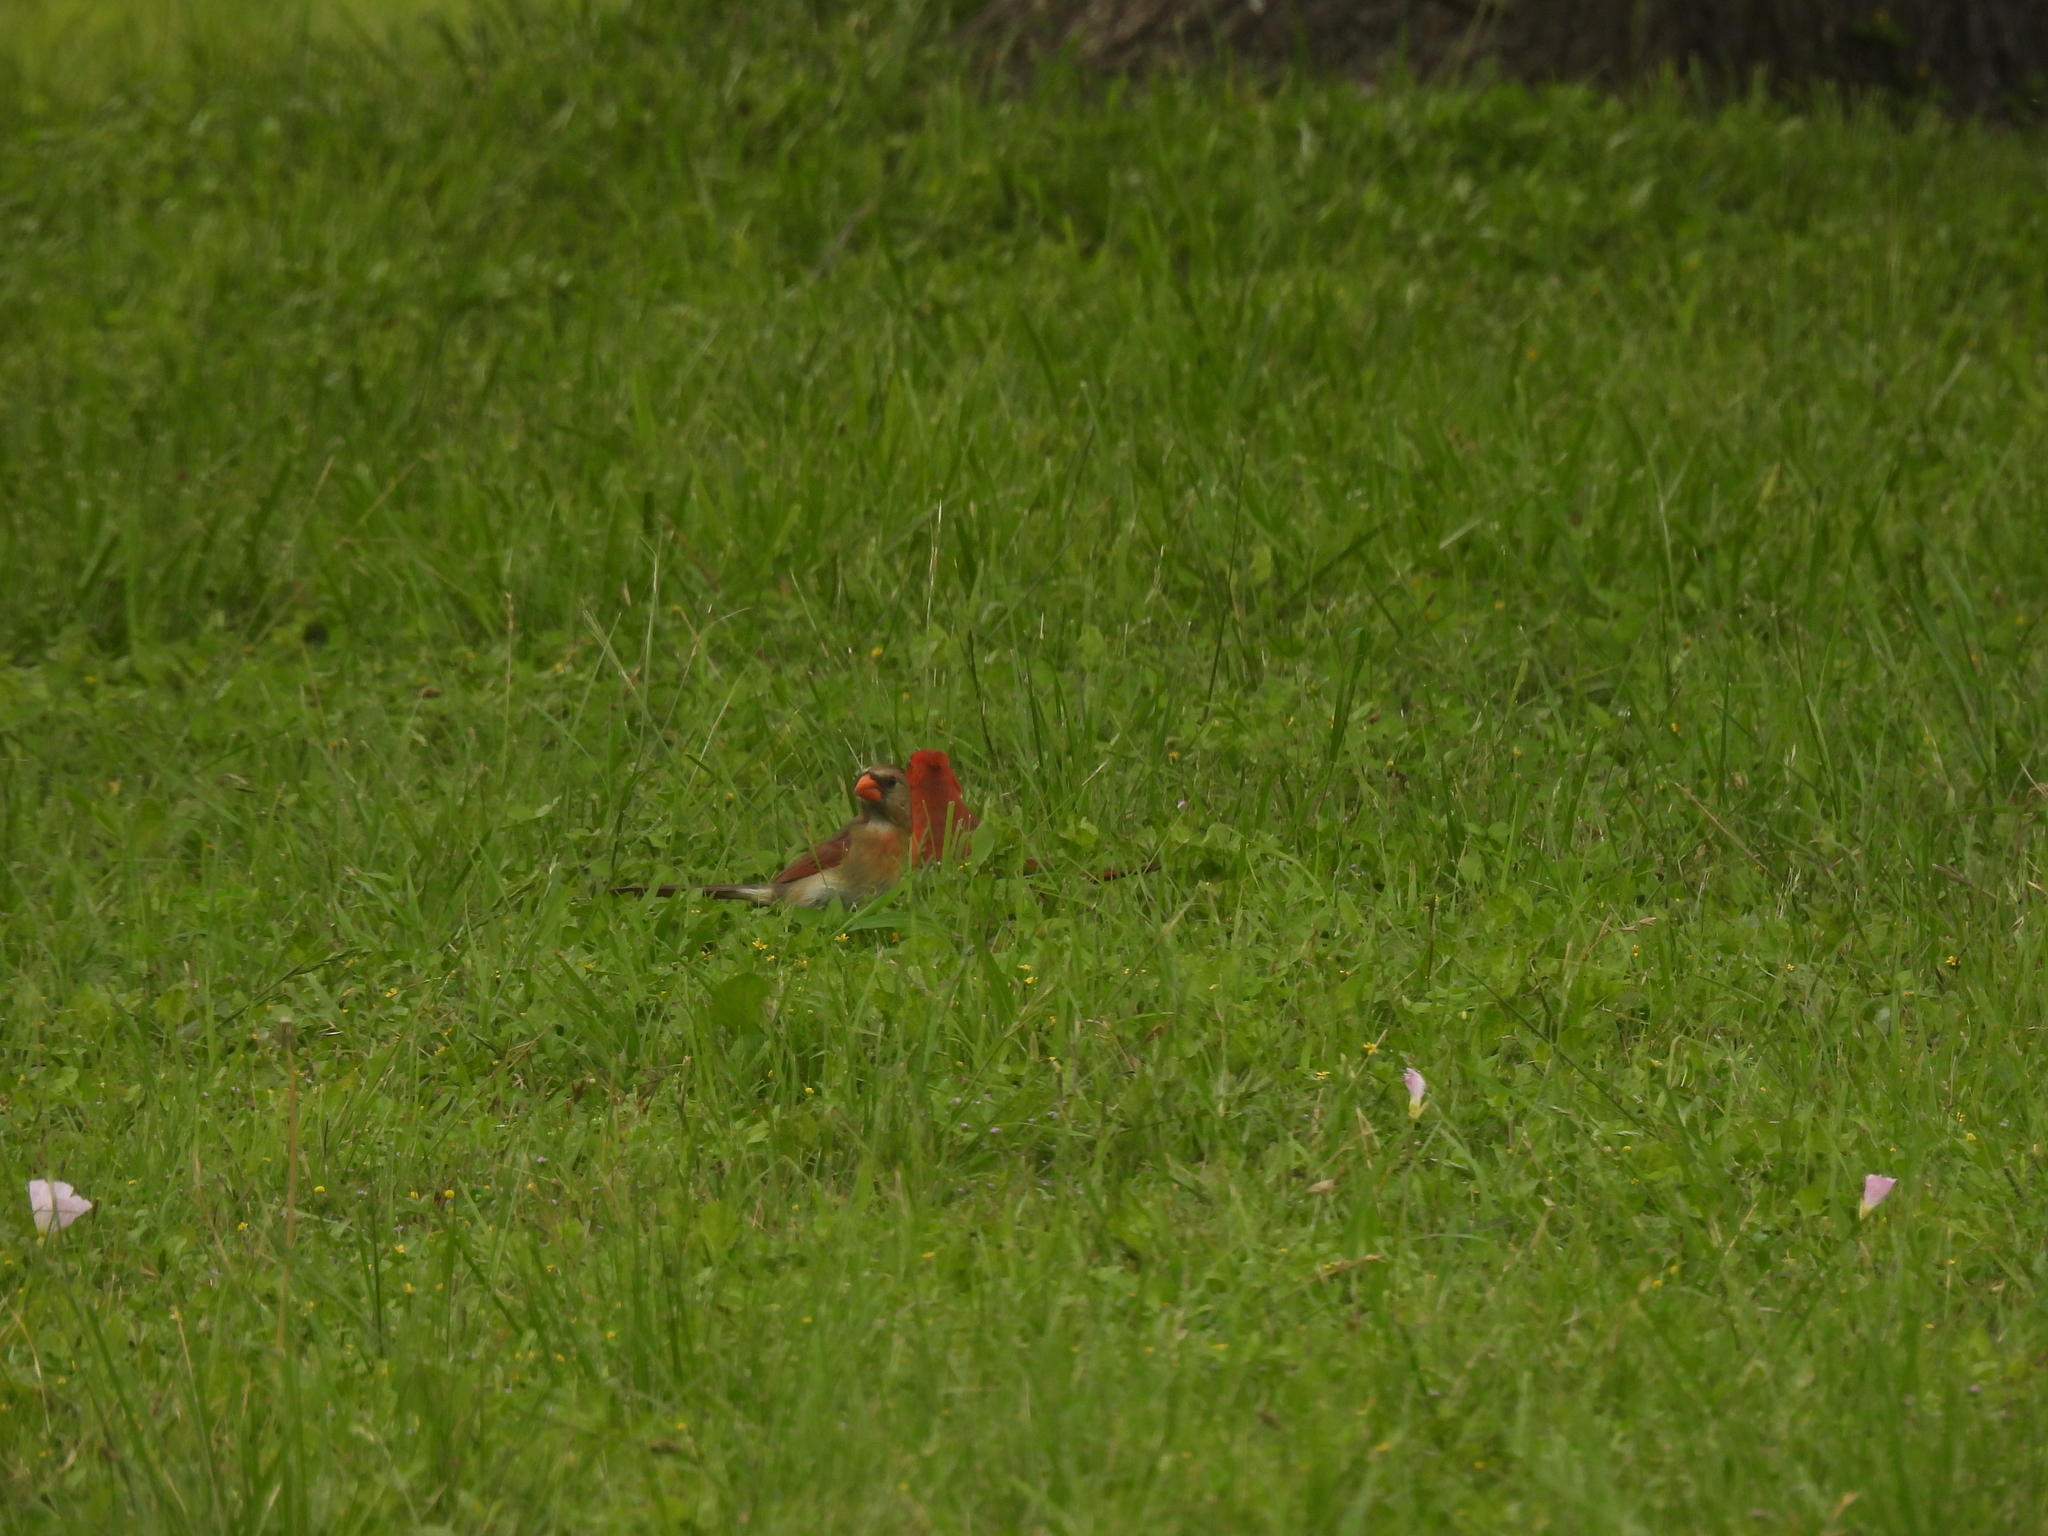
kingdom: Animalia
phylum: Chordata
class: Aves
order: Passeriformes
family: Cardinalidae
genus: Cardinalis
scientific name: Cardinalis cardinalis
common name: Northern cardinal
